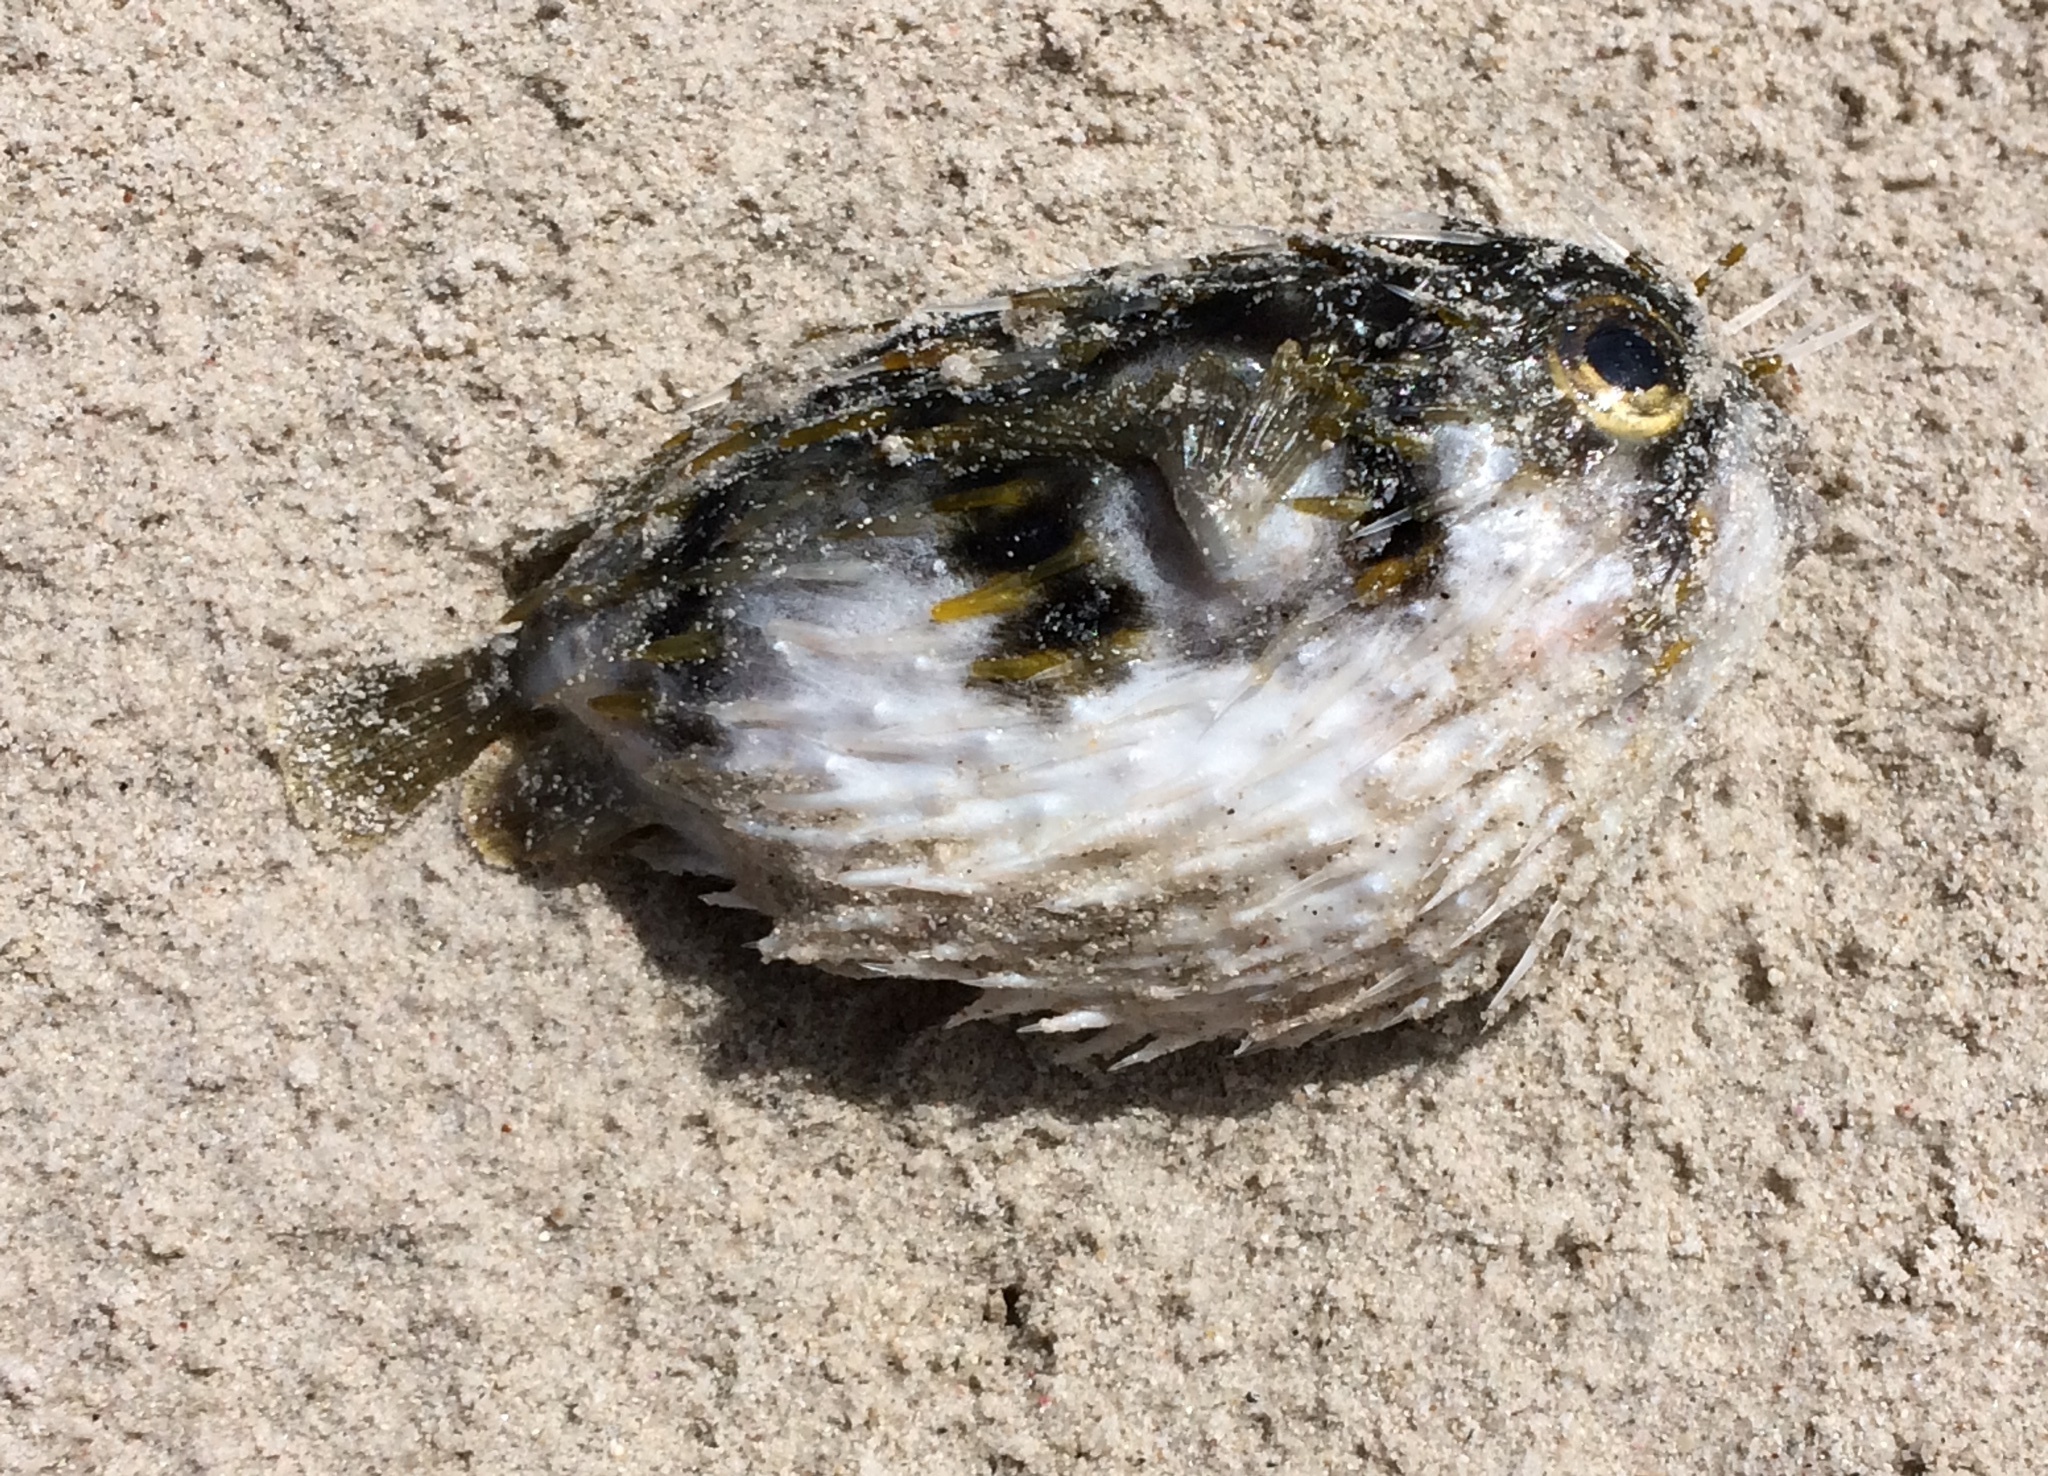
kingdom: Animalia
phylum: Chordata
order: Tetraodontiformes
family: Diodontidae
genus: Diodon
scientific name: Diodon nicthemerus
